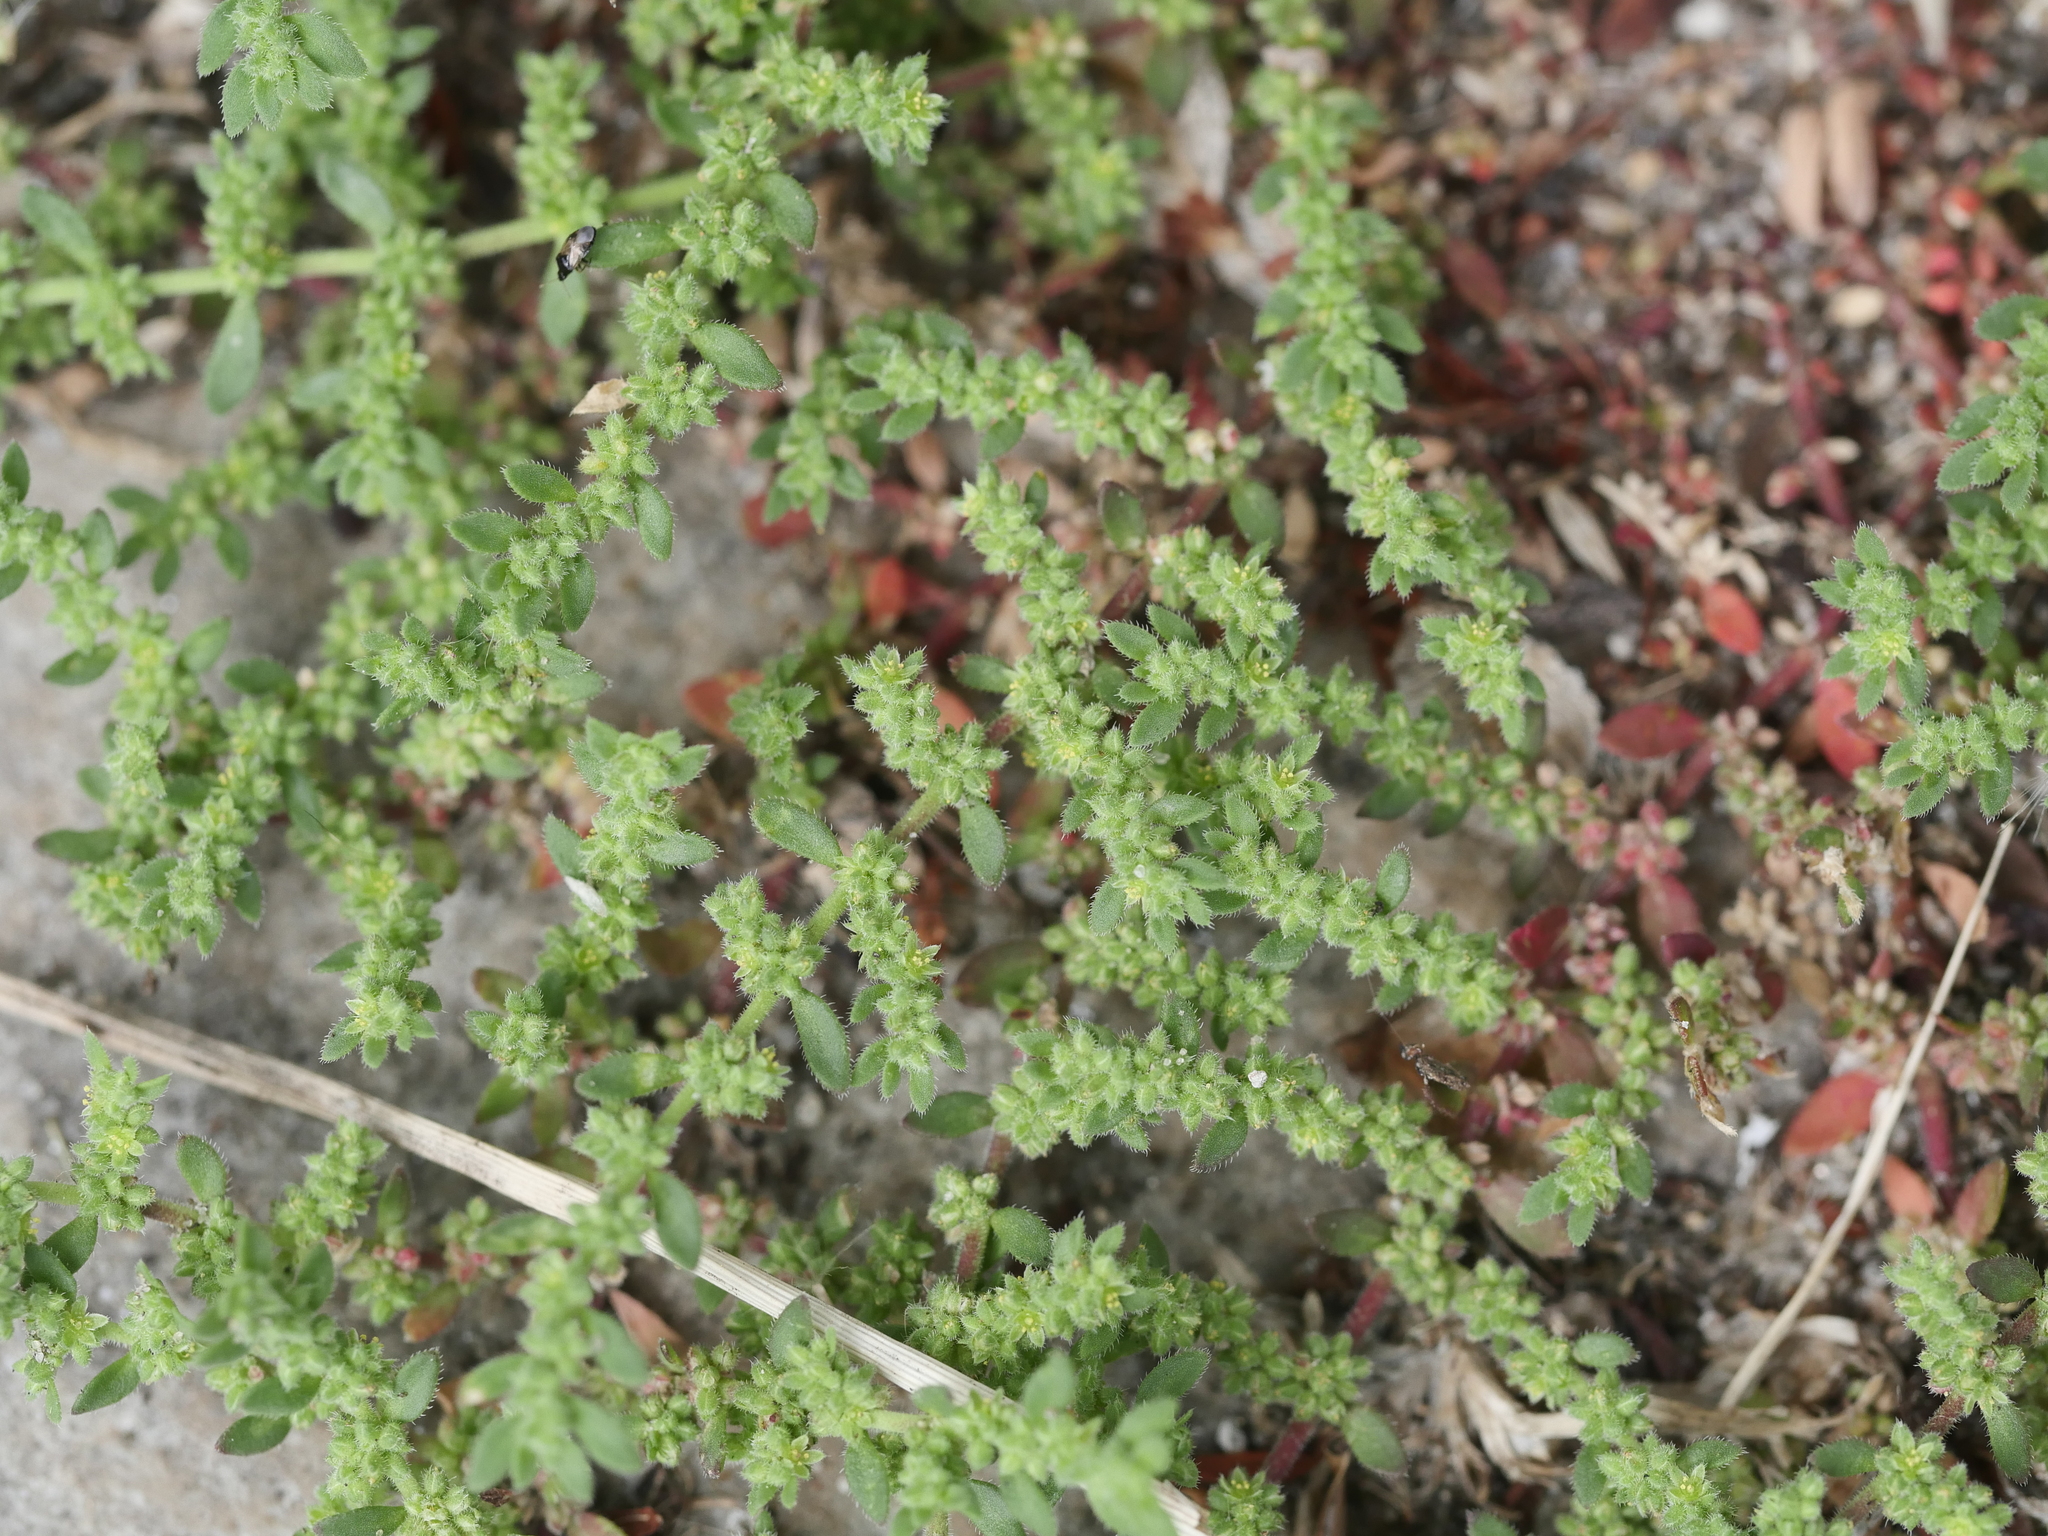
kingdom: Plantae
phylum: Tracheophyta
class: Magnoliopsida
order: Caryophyllales
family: Caryophyllaceae
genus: Herniaria
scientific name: Herniaria hirsuta
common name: Hairy rupturewort
